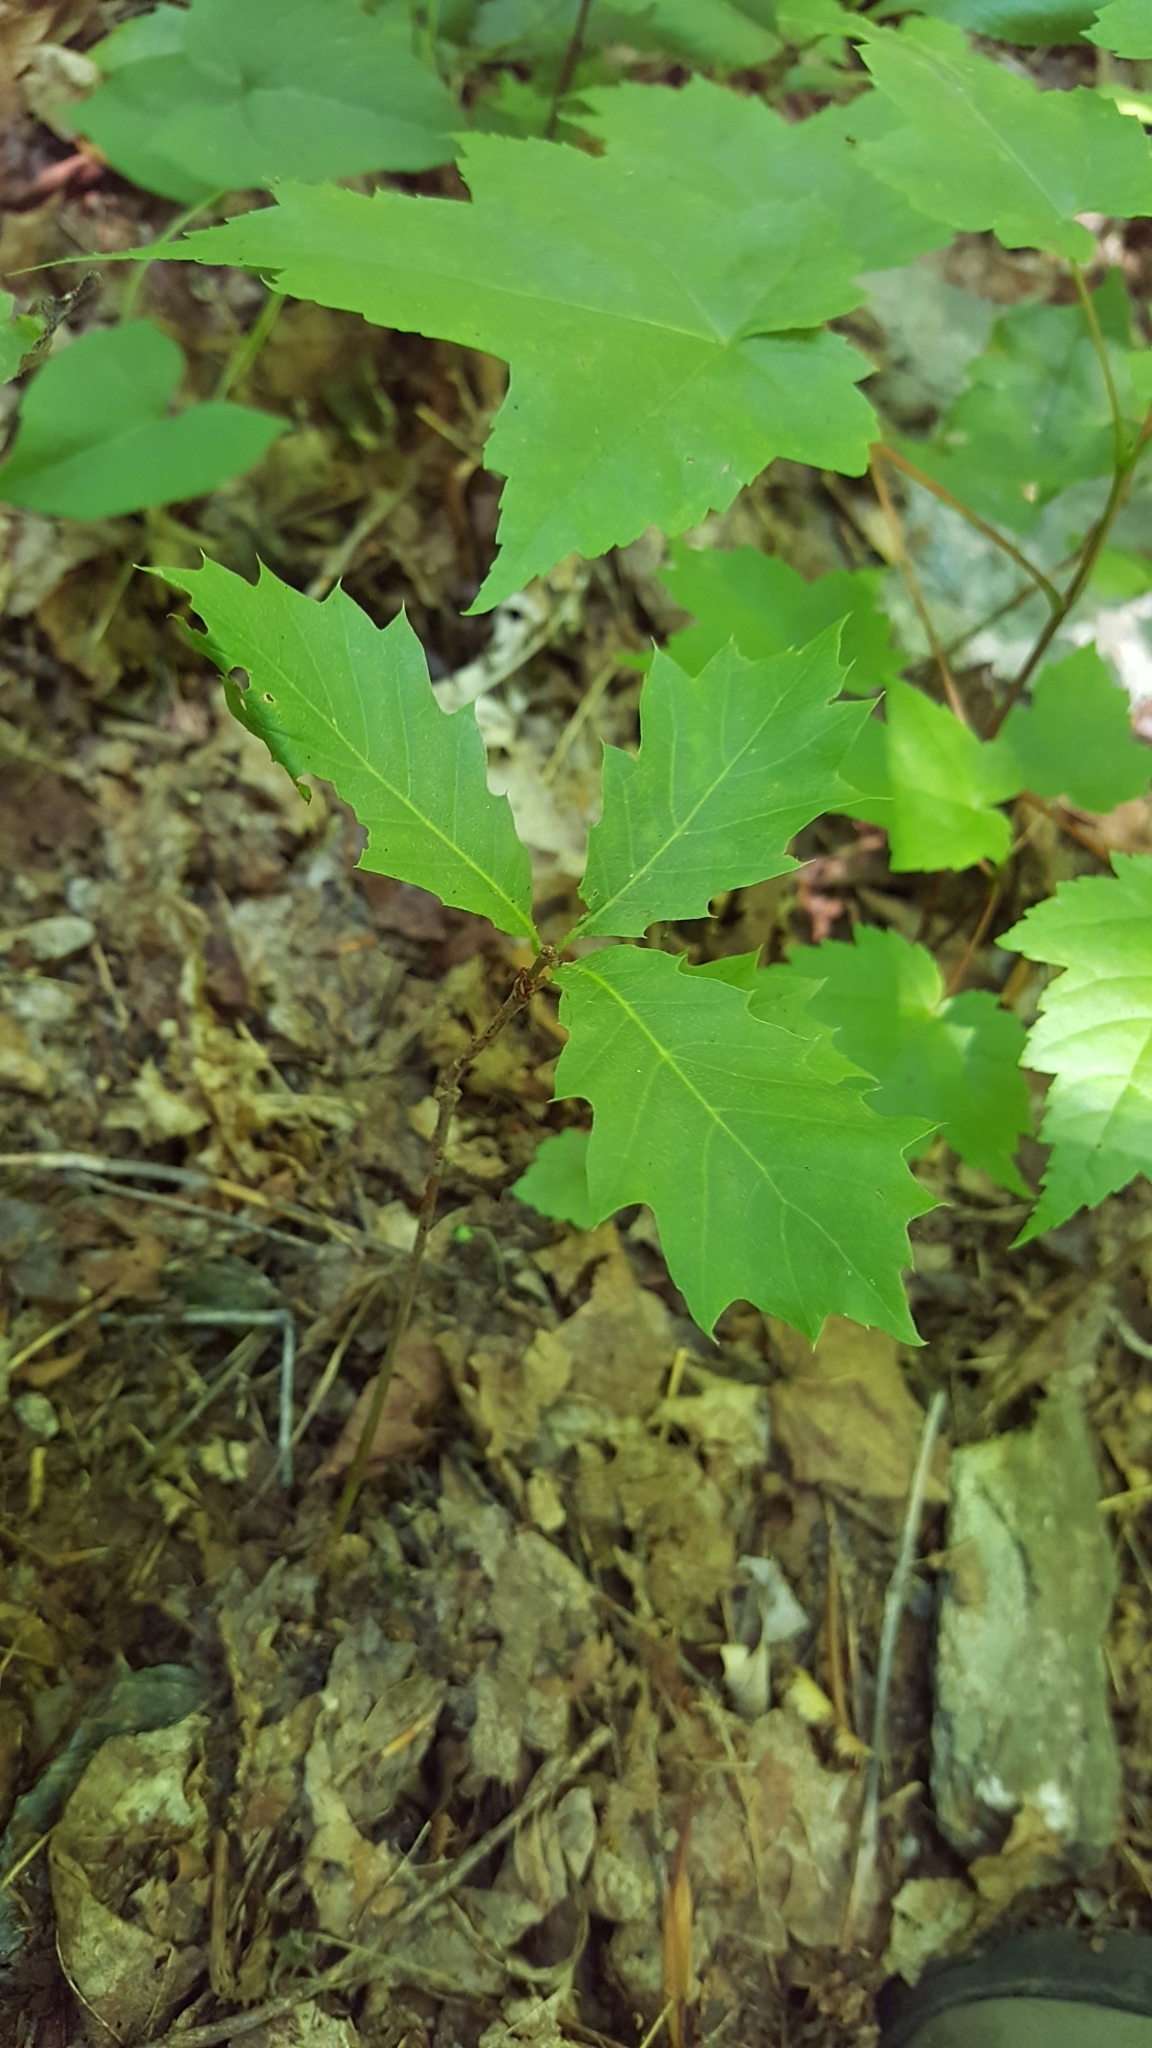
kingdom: Plantae
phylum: Tracheophyta
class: Magnoliopsida
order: Fagales
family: Fagaceae
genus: Quercus
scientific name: Quercus rubra
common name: Red oak
